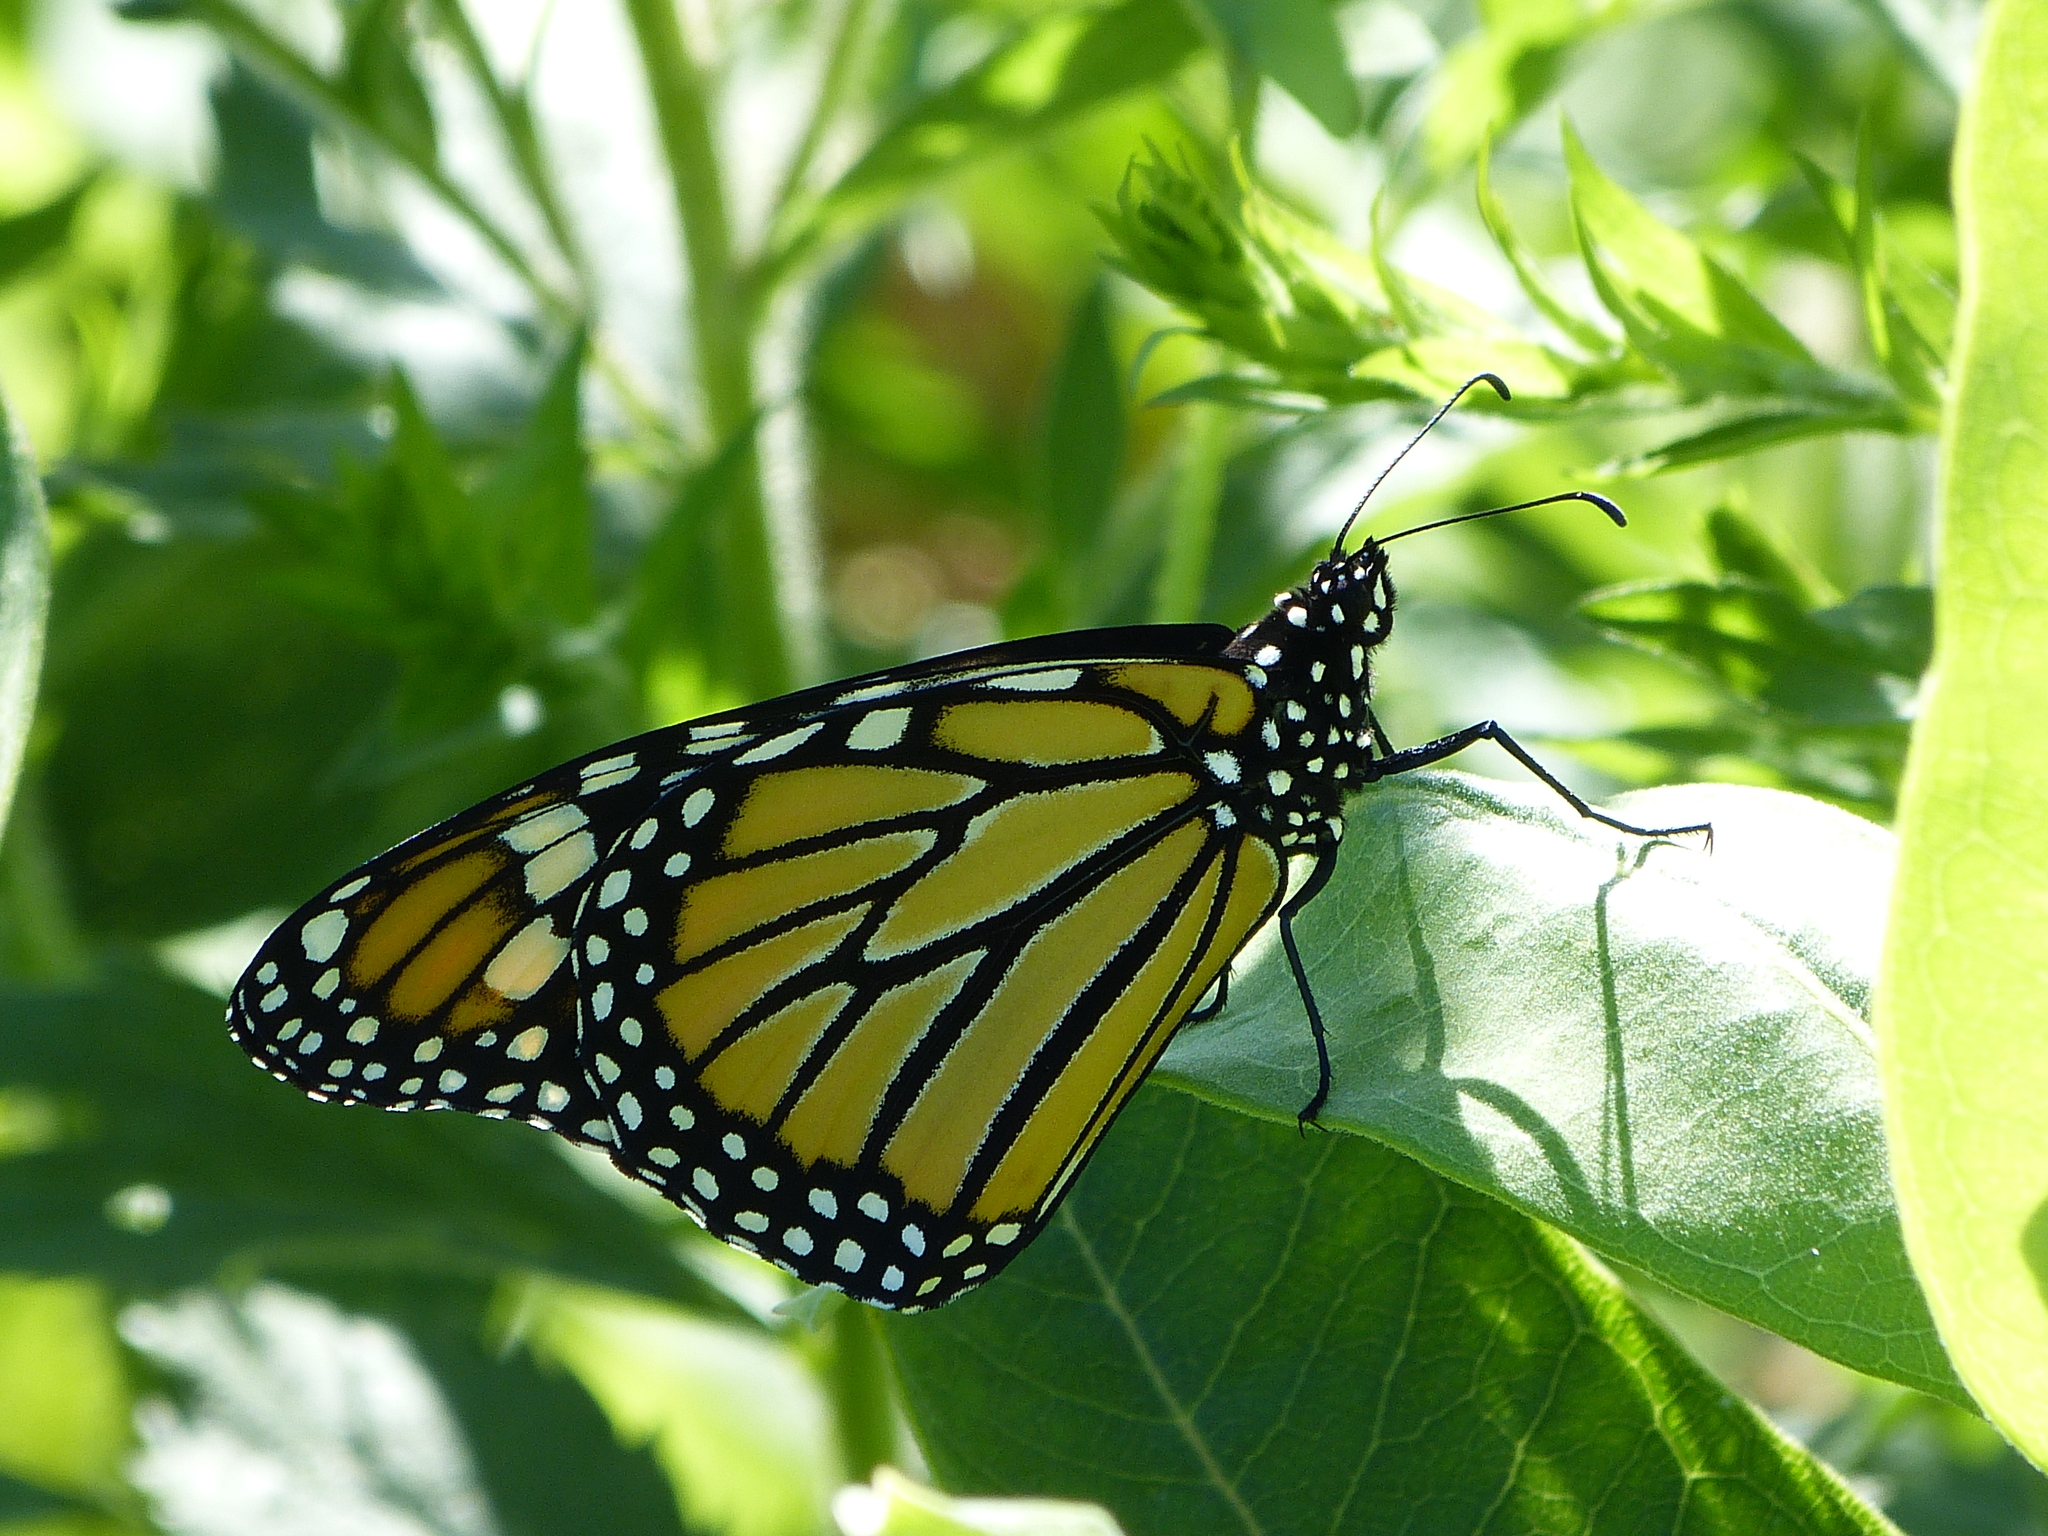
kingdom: Animalia
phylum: Arthropoda
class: Insecta
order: Lepidoptera
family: Nymphalidae
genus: Danaus
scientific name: Danaus plexippus
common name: Monarch
